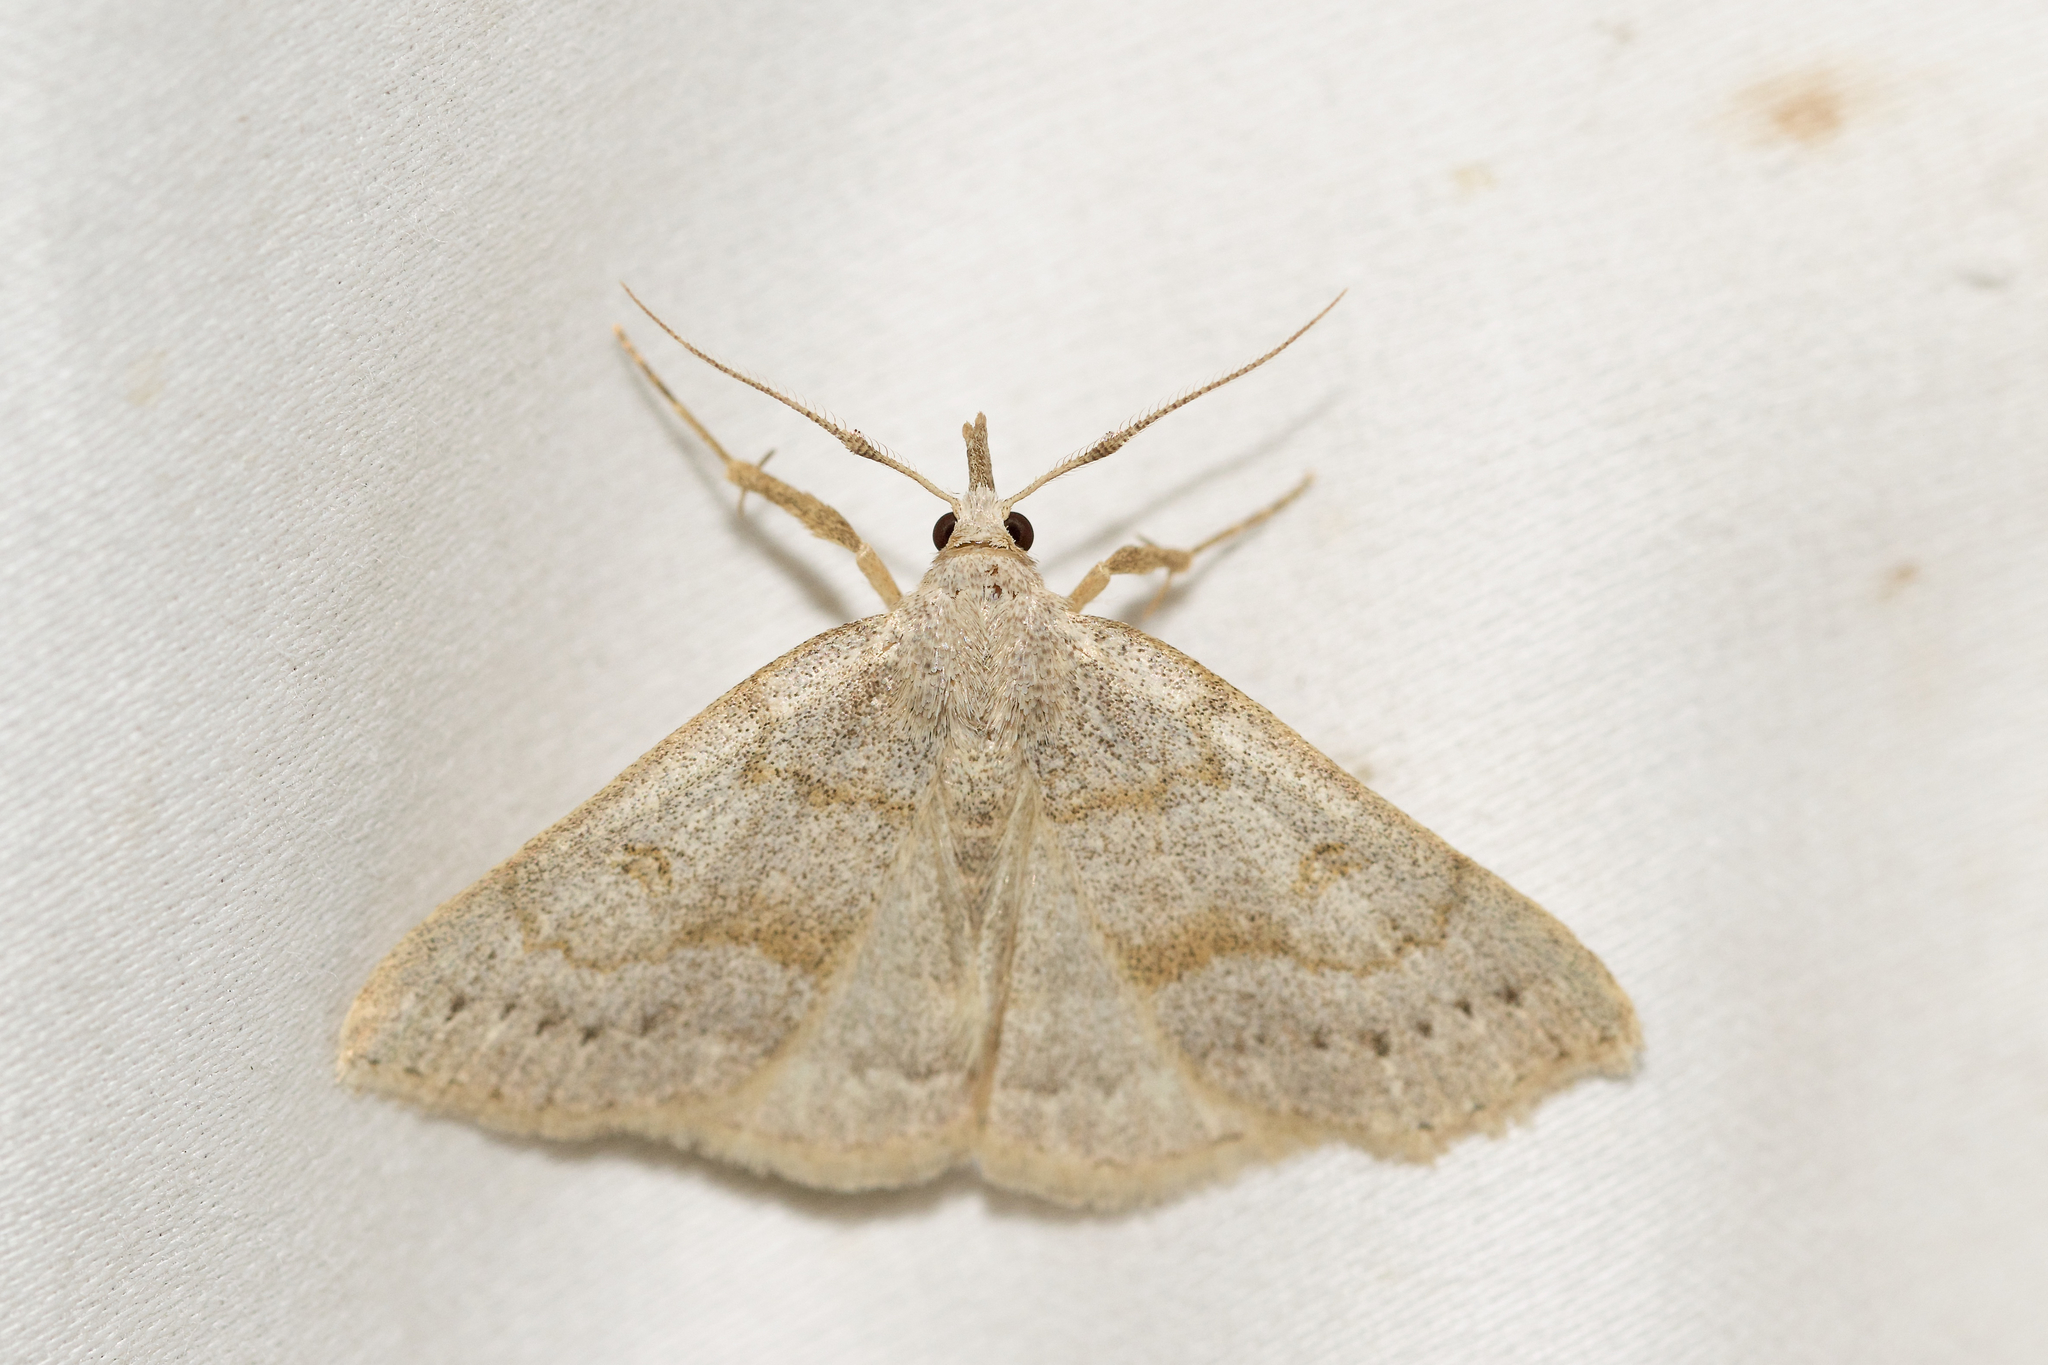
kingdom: Animalia
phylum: Arthropoda
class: Insecta
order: Lepidoptera
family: Erebidae
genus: Macrochilo
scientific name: Macrochilo morbidalis
